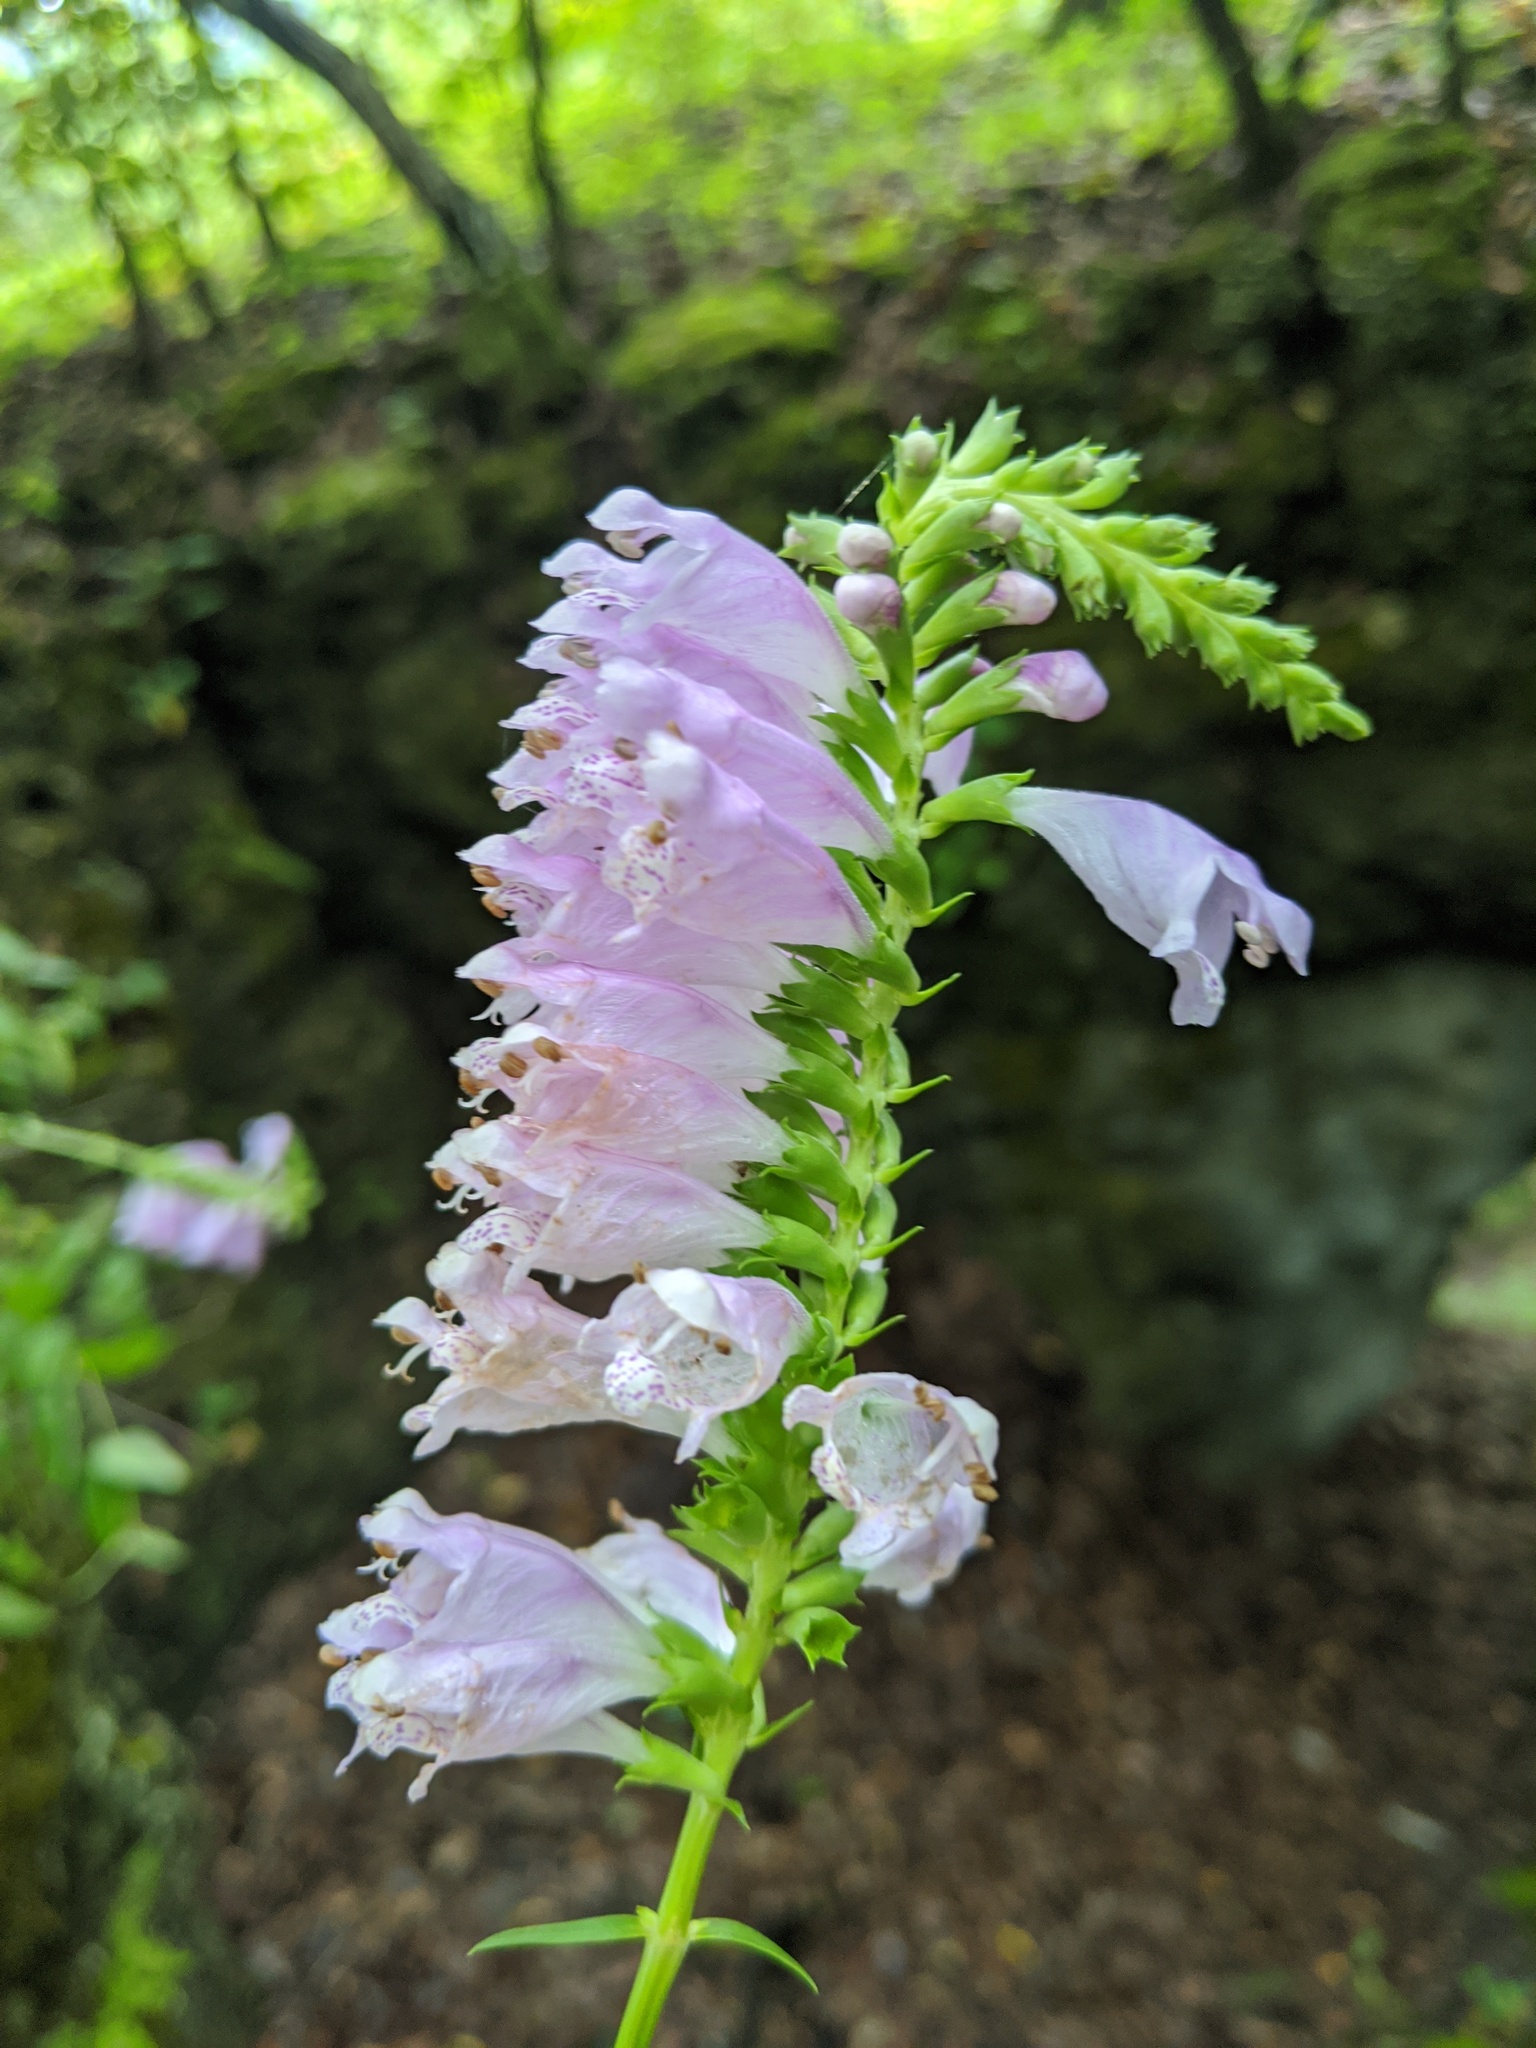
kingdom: Plantae
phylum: Tracheophyta
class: Magnoliopsida
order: Lamiales
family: Lamiaceae
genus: Physostegia
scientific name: Physostegia virginiana
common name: Obedient-plant
